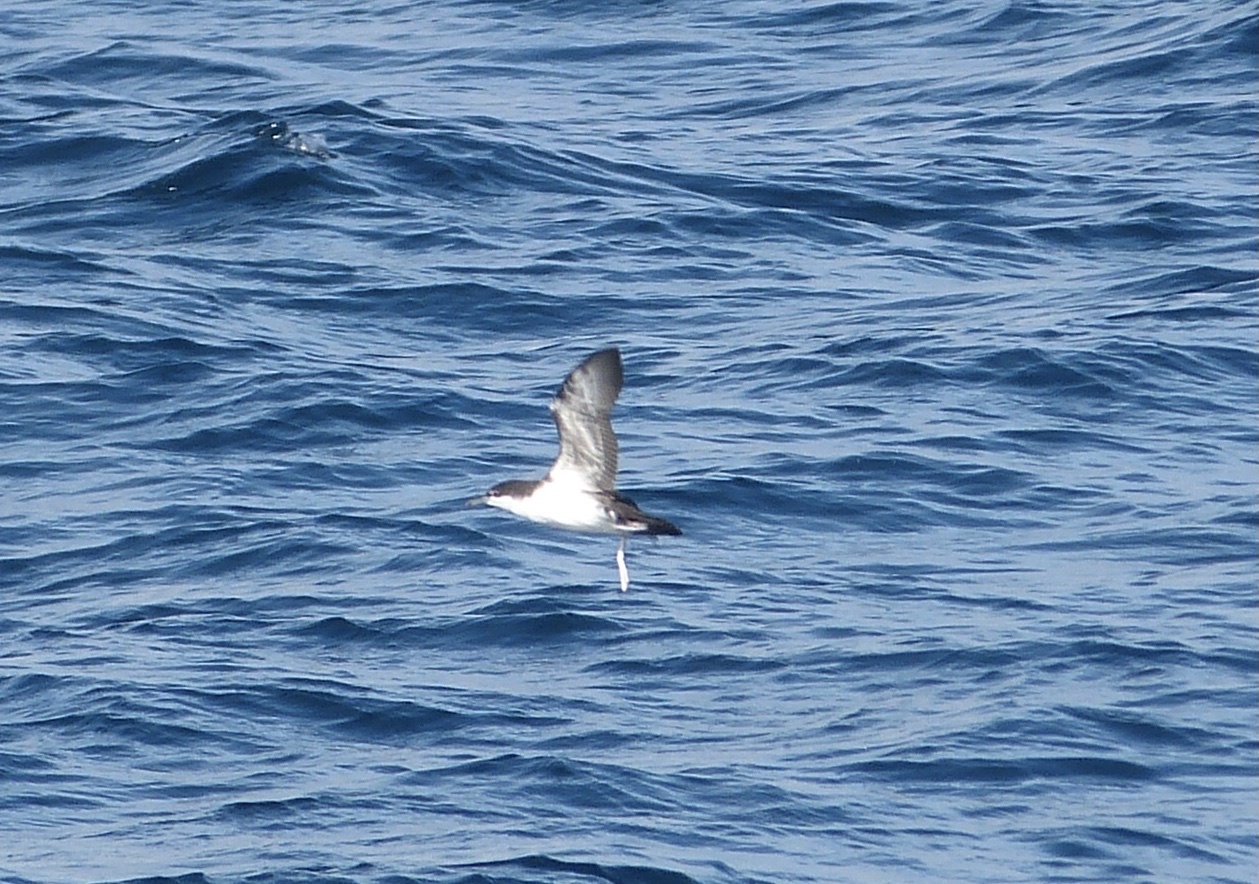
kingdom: Animalia
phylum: Chordata
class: Aves
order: Procellariiformes
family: Procellariidae
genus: Puffinus
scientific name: Puffinus subalaris
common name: Galapagos shearwater
